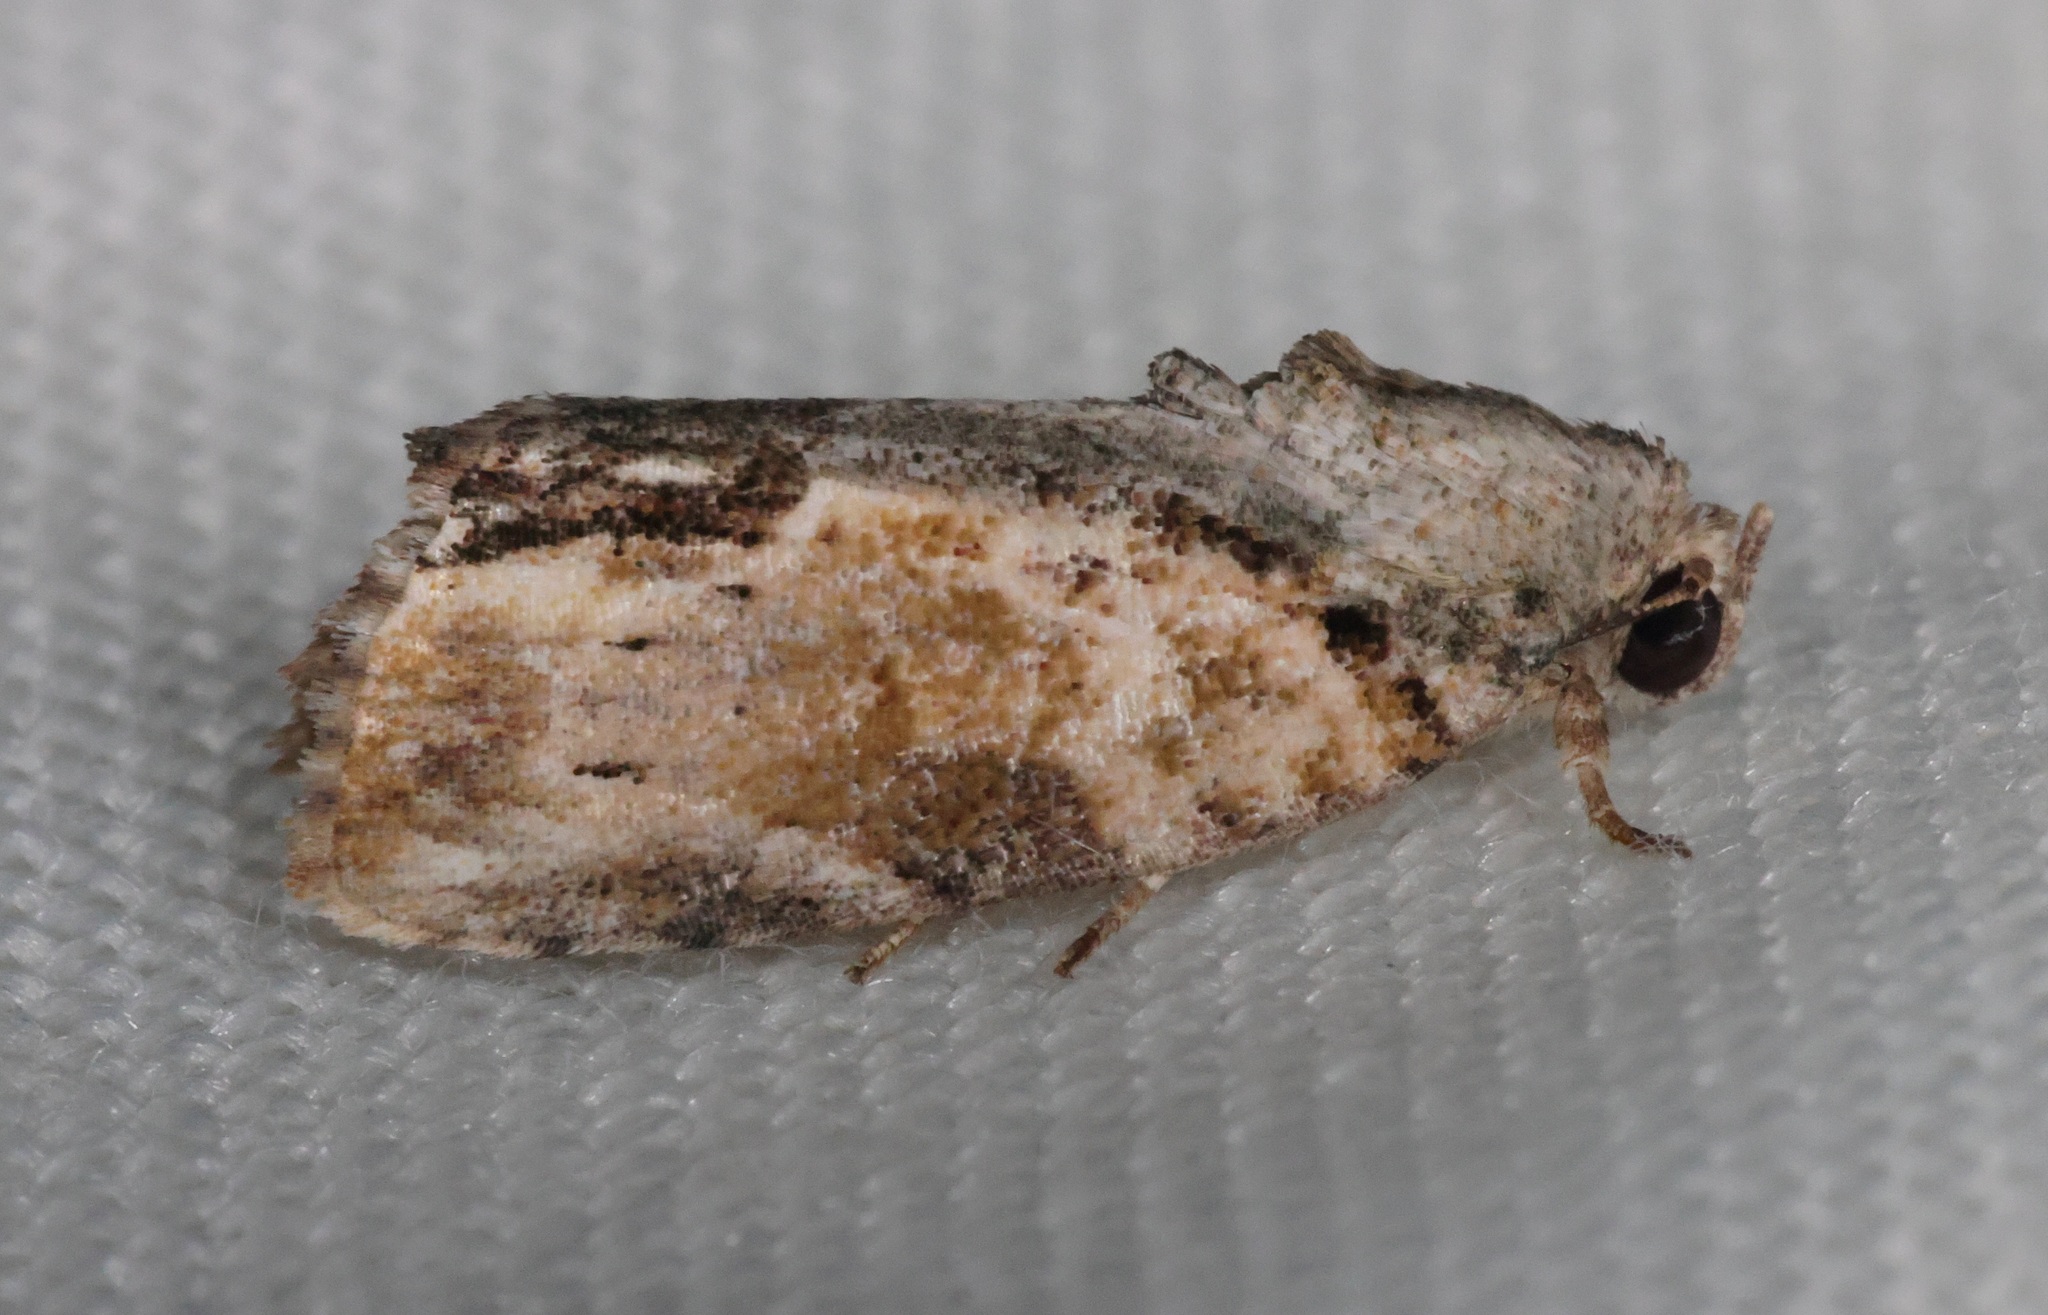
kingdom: Animalia
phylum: Arthropoda
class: Insecta
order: Lepidoptera
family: Nolidae
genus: Etanna
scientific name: Etanna breviuscula
